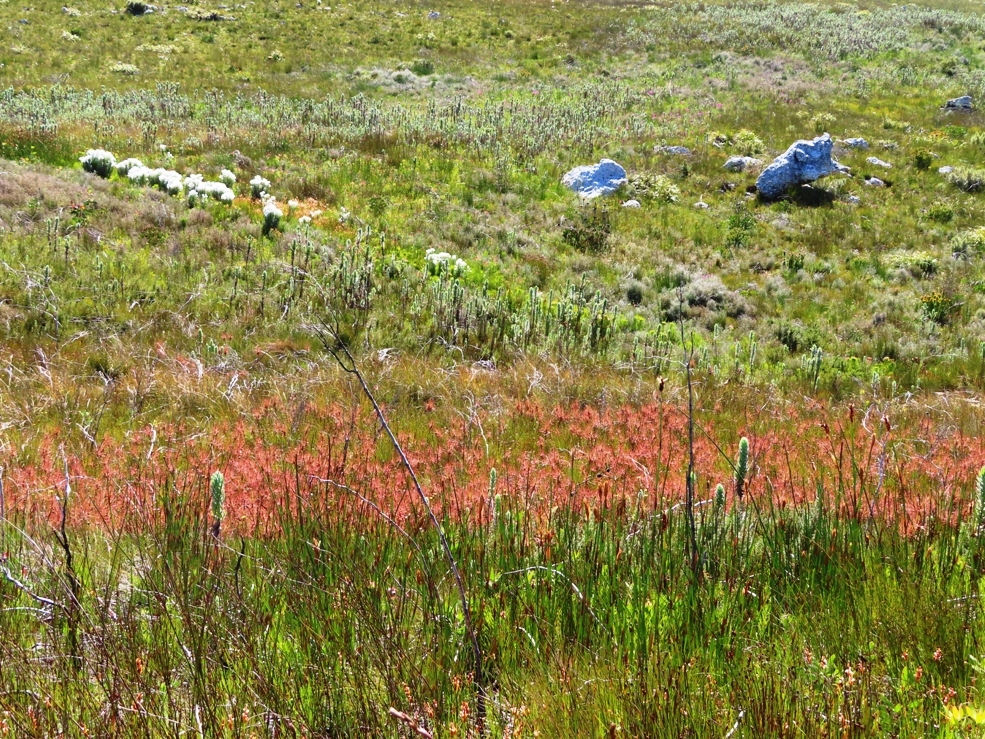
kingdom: Plantae
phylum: Tracheophyta
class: Magnoliopsida
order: Ericales
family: Roridulaceae
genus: Roridula
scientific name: Roridula gorgonias
